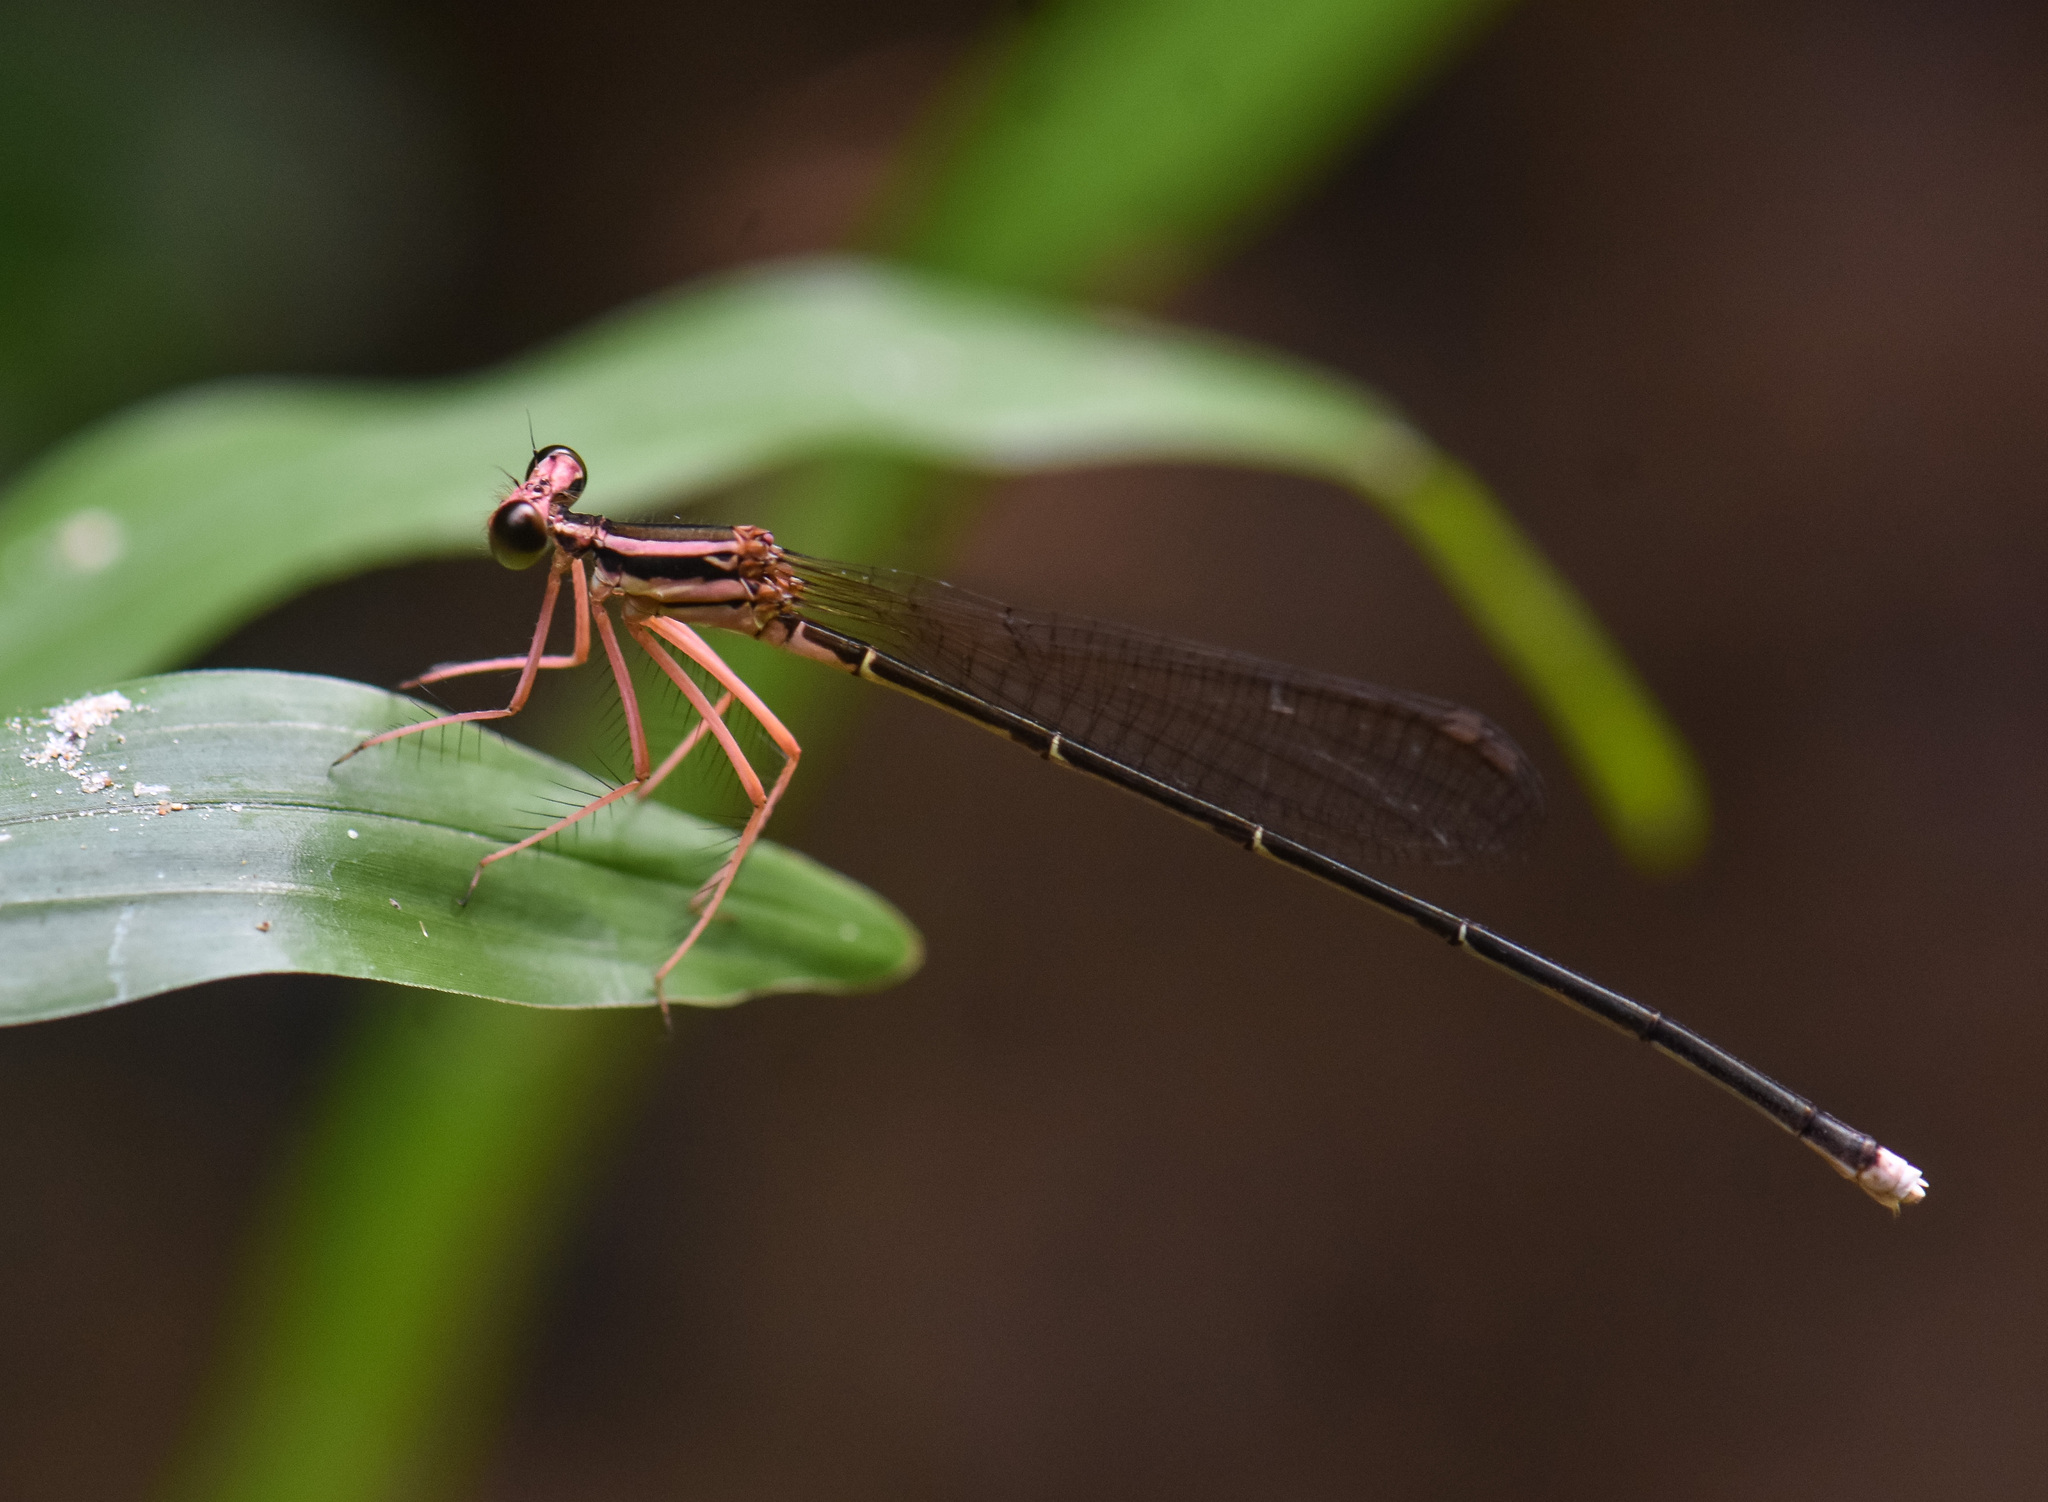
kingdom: Animalia
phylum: Arthropoda
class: Insecta
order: Odonata
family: Platycnemididae
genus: Pseudocopera
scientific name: Pseudocopera ciliata
